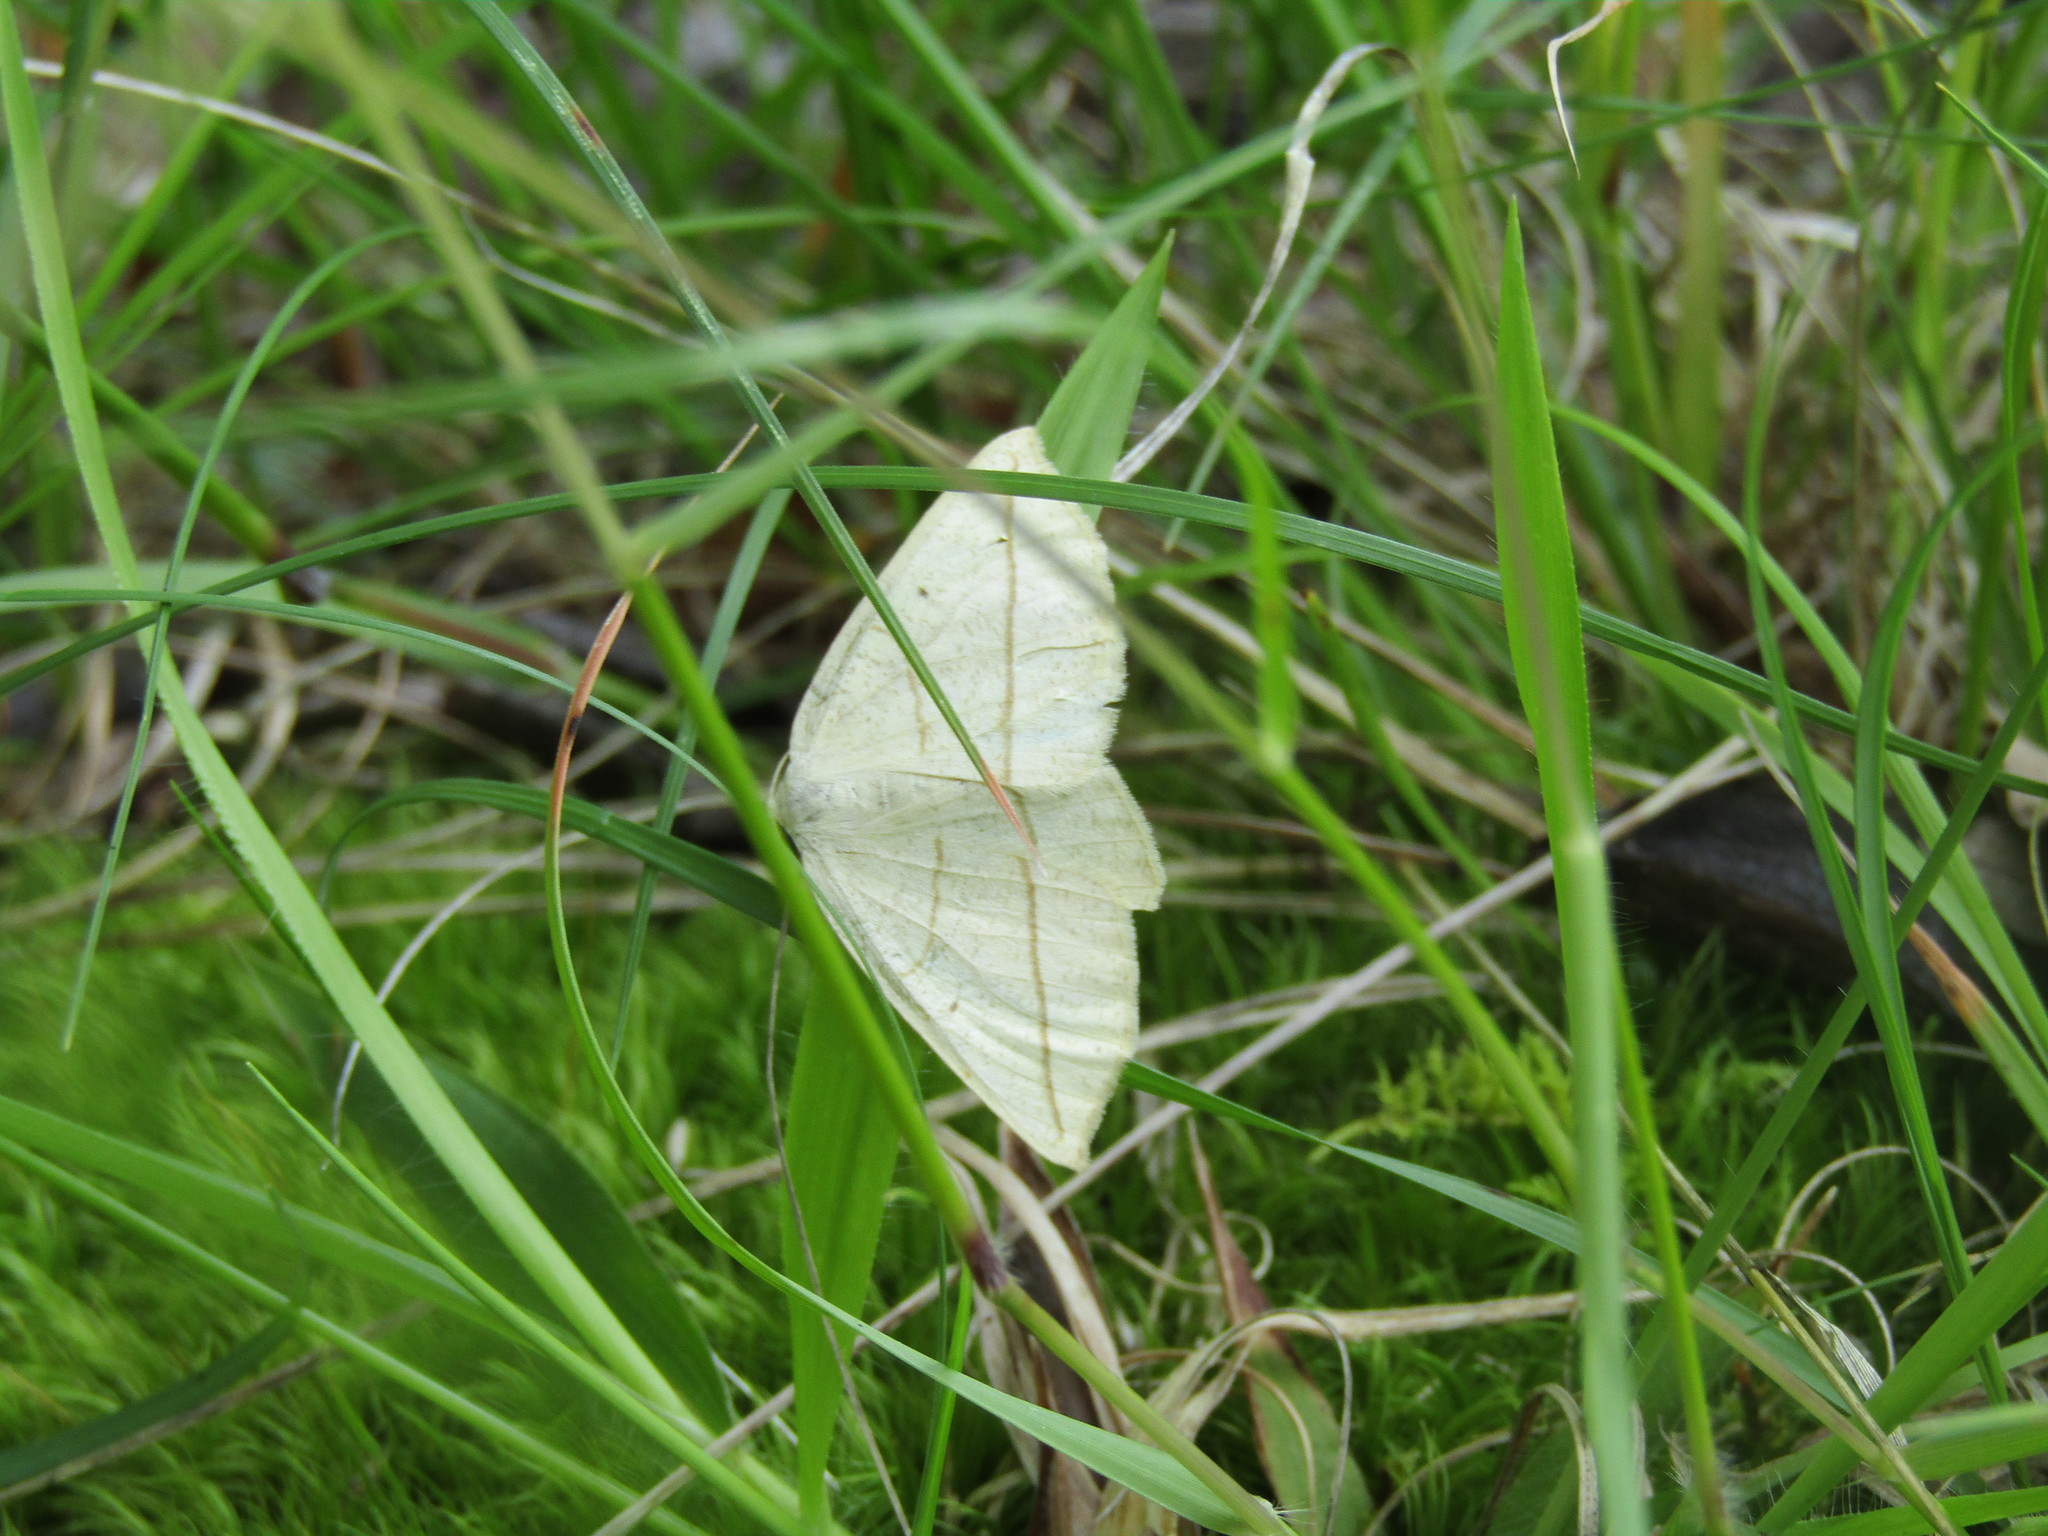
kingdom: Animalia
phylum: Arthropoda
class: Insecta
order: Lepidoptera
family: Geometridae
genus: Eusarca
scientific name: Eusarca confusaria
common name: Confused eusarca
